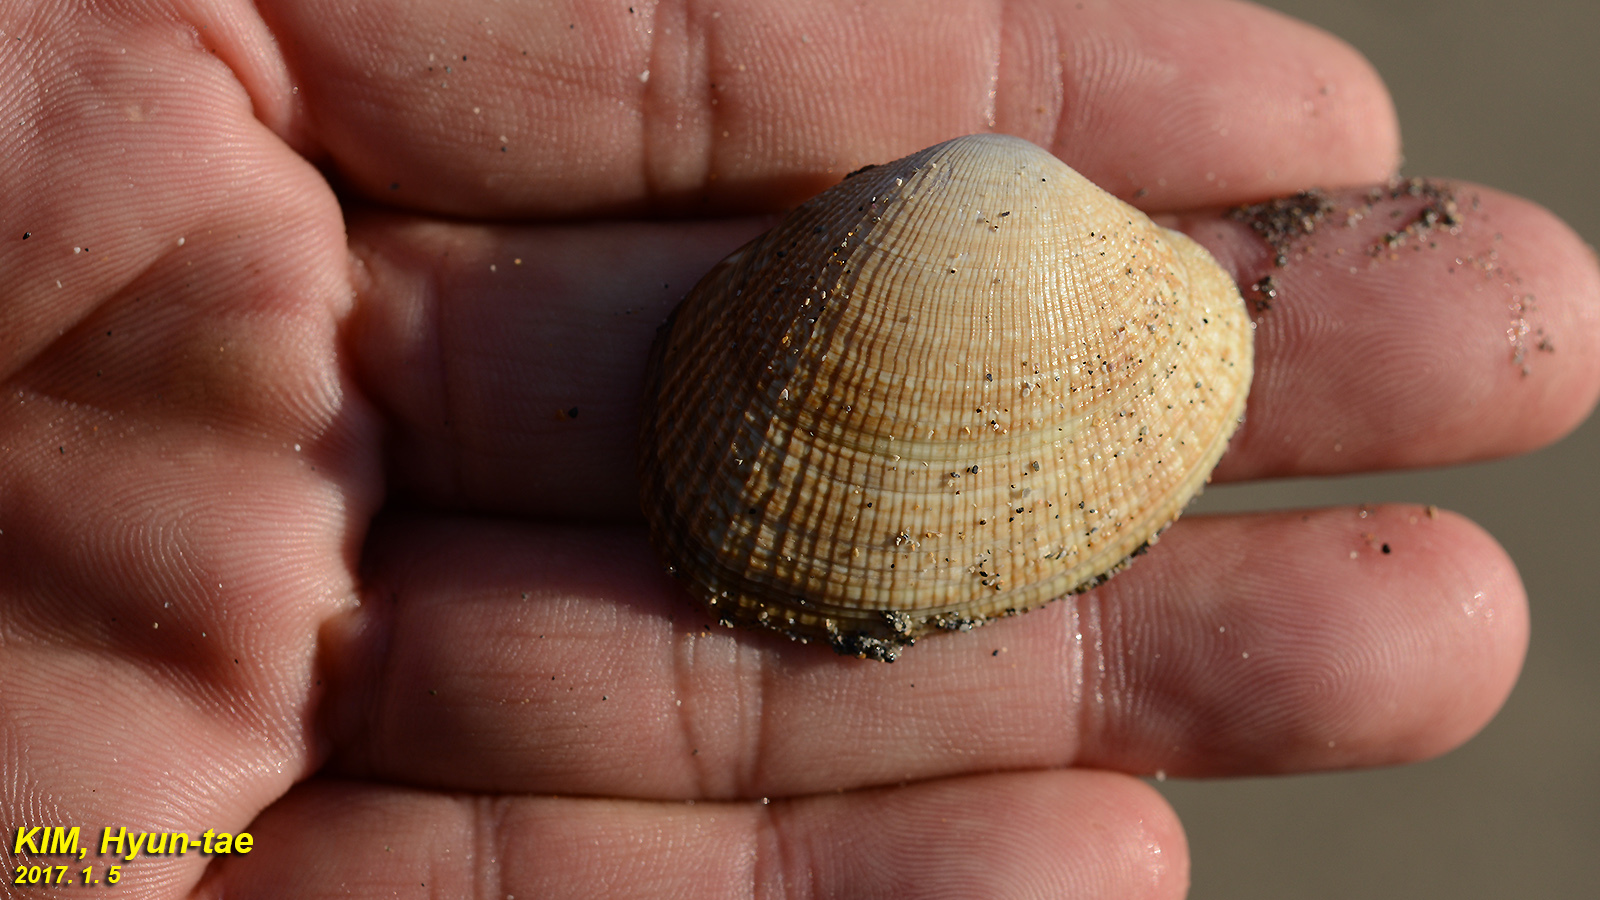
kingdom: Animalia
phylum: Mollusca
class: Bivalvia
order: Venerida
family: Veneridae
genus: Ruditapes
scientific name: Ruditapes philippinarum
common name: Manila clam
